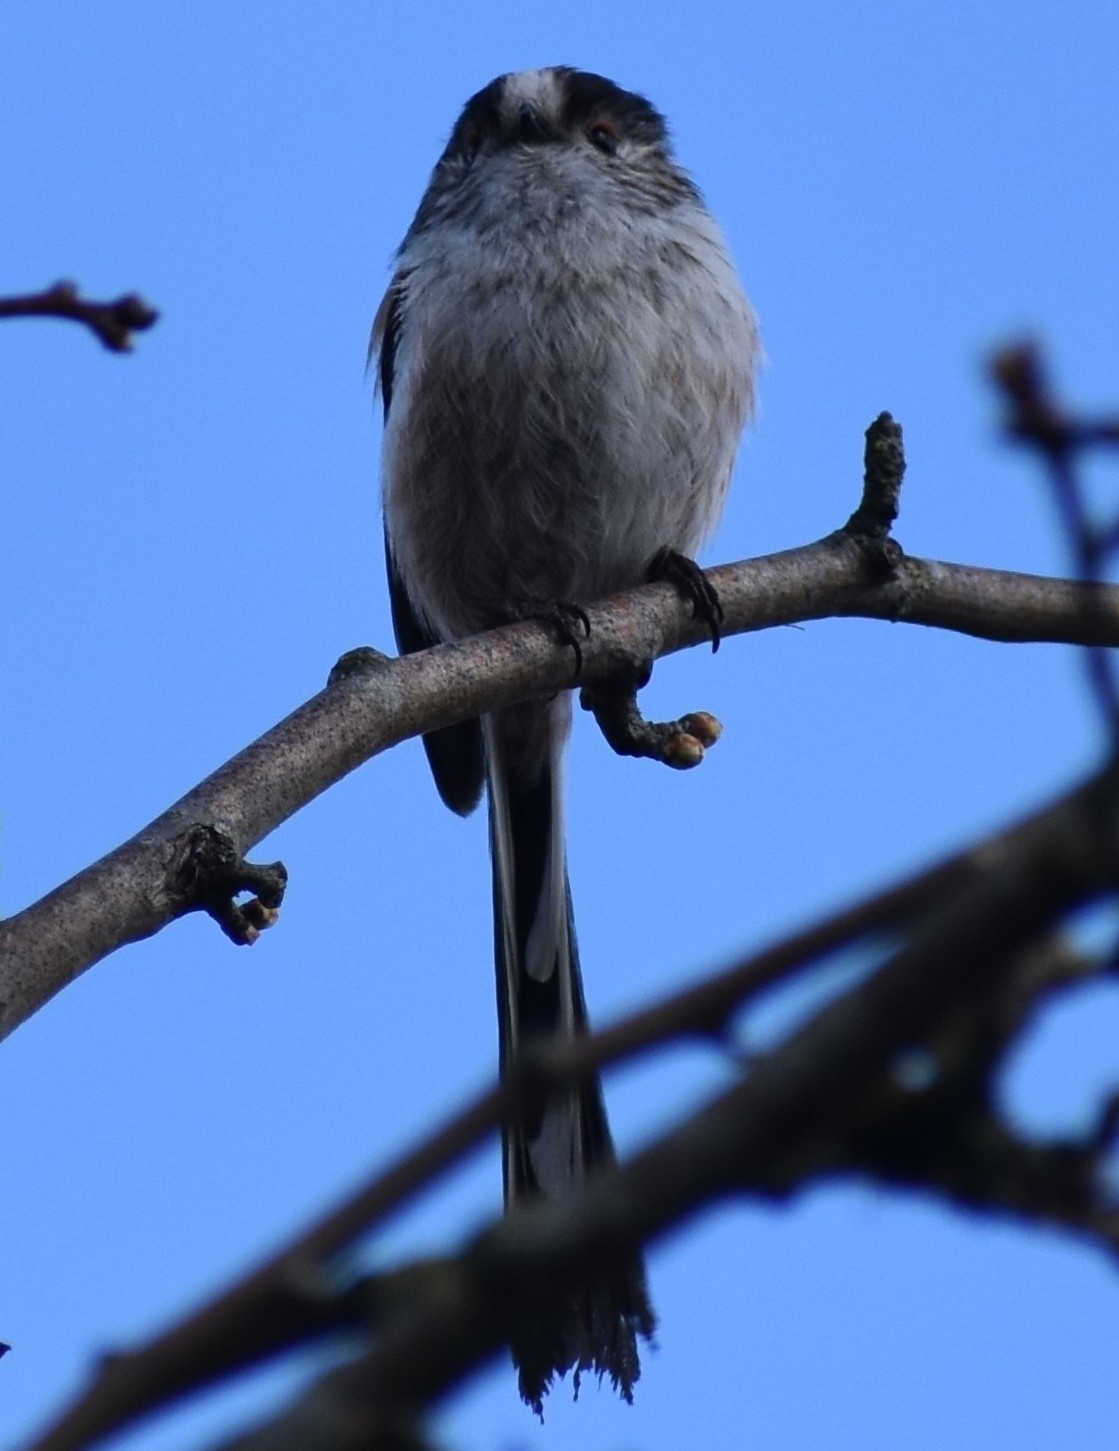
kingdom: Animalia
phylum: Chordata
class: Aves
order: Passeriformes
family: Aegithalidae
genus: Aegithalos
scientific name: Aegithalos caudatus
